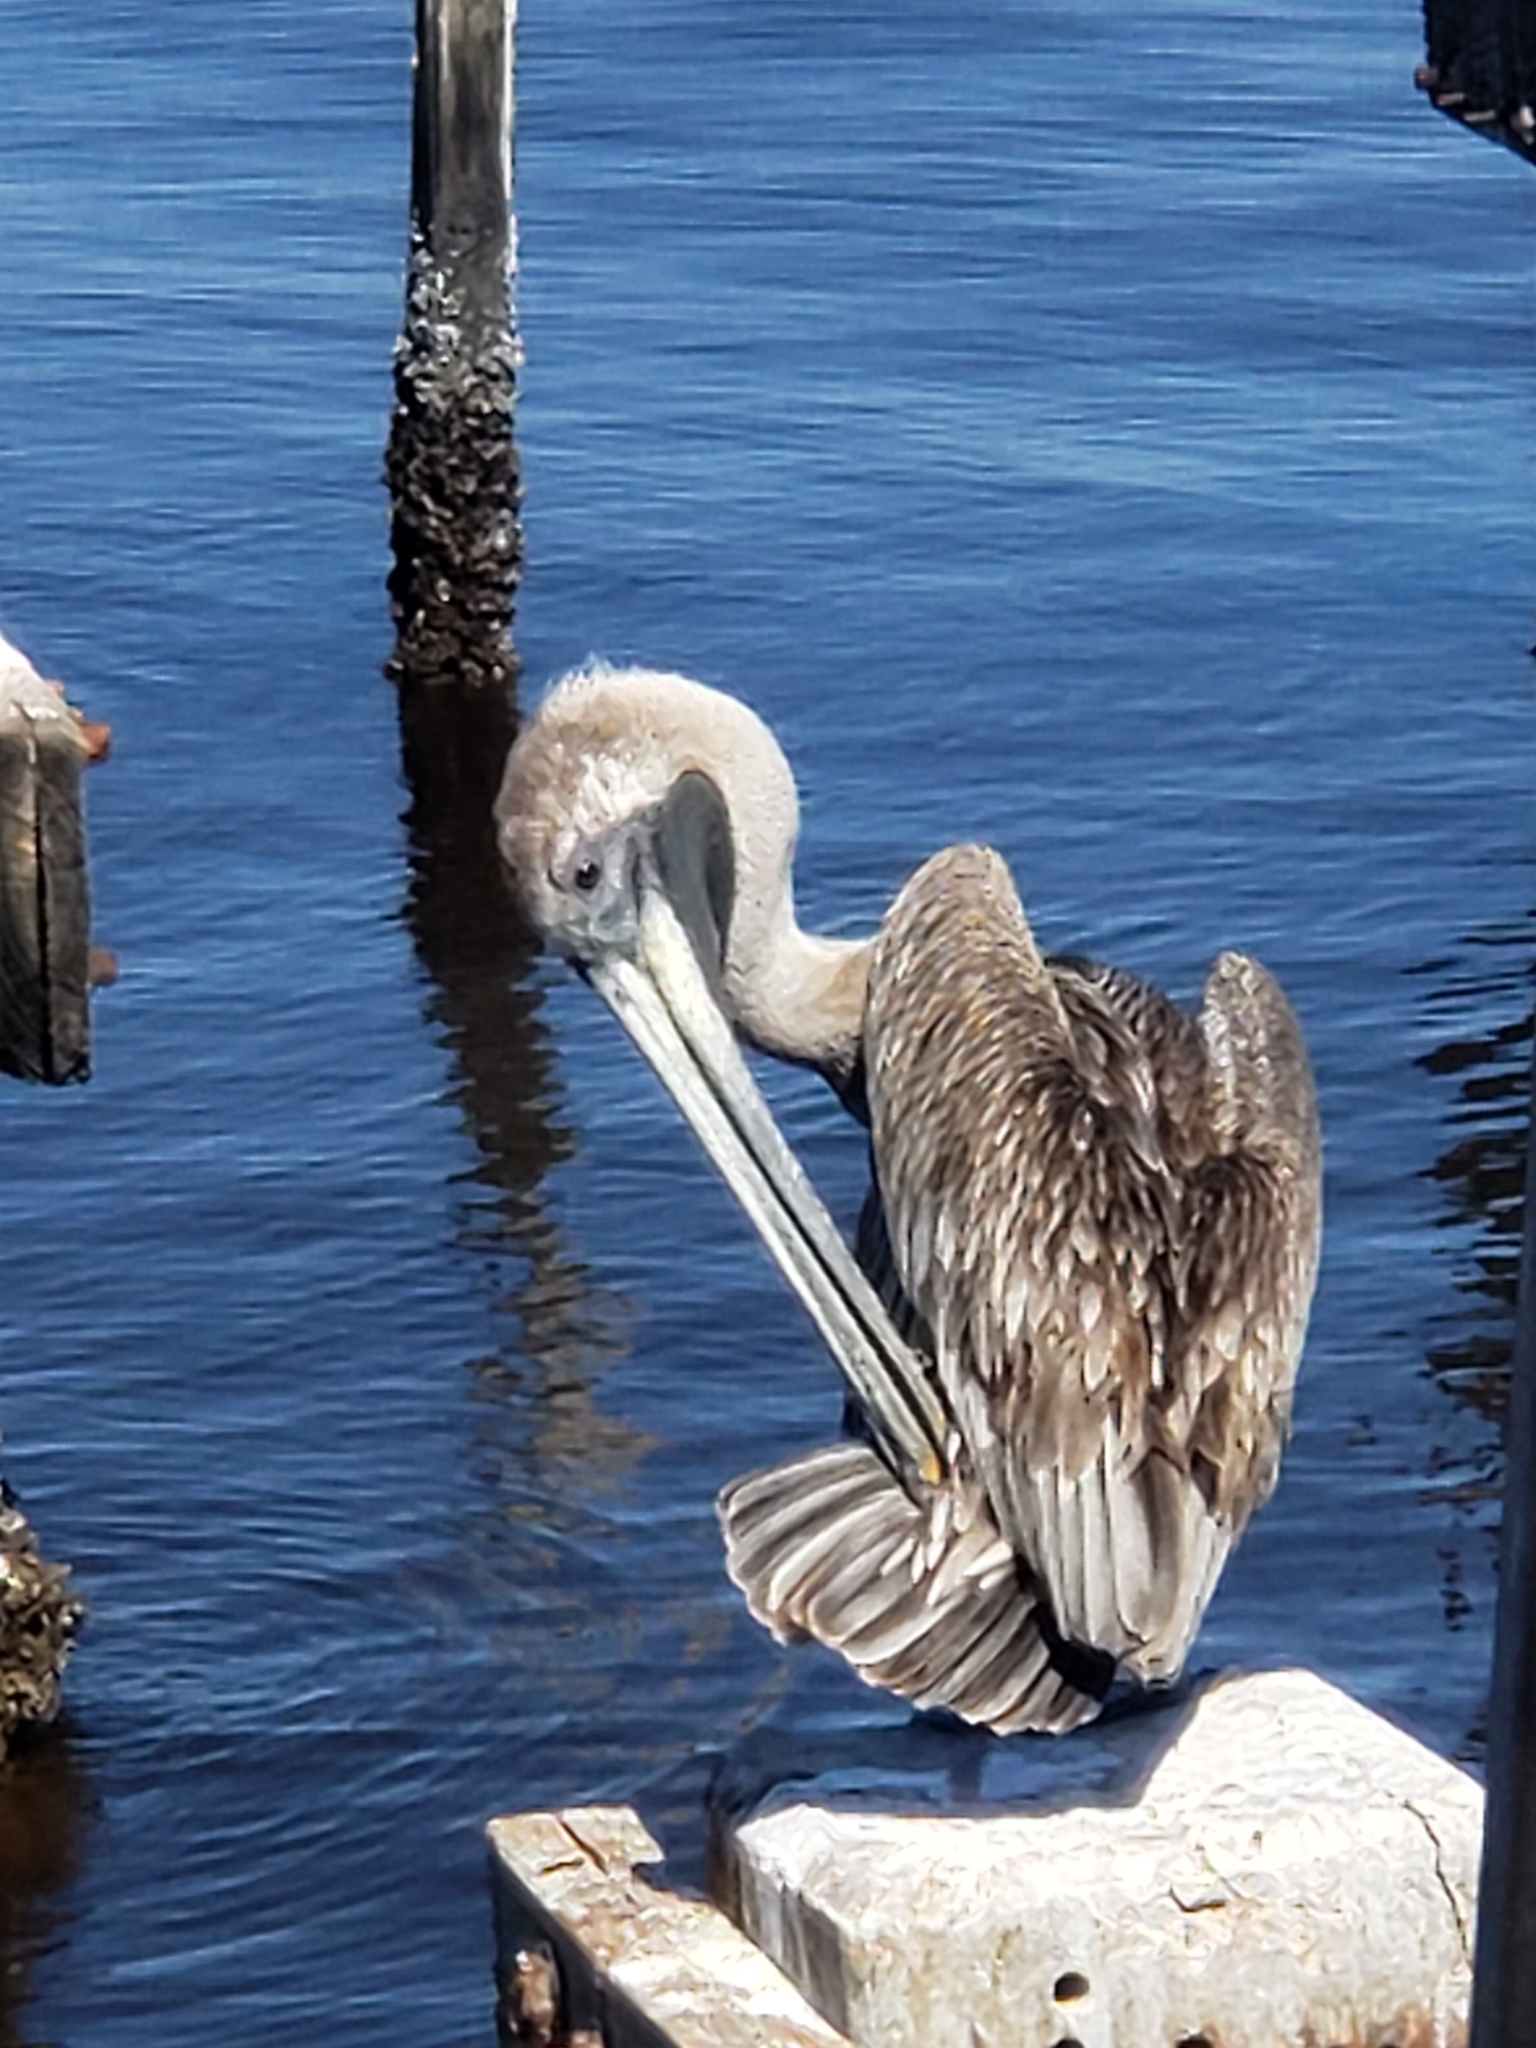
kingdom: Animalia
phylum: Chordata
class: Aves
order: Pelecaniformes
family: Pelecanidae
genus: Pelecanus
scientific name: Pelecanus occidentalis
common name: Brown pelican
